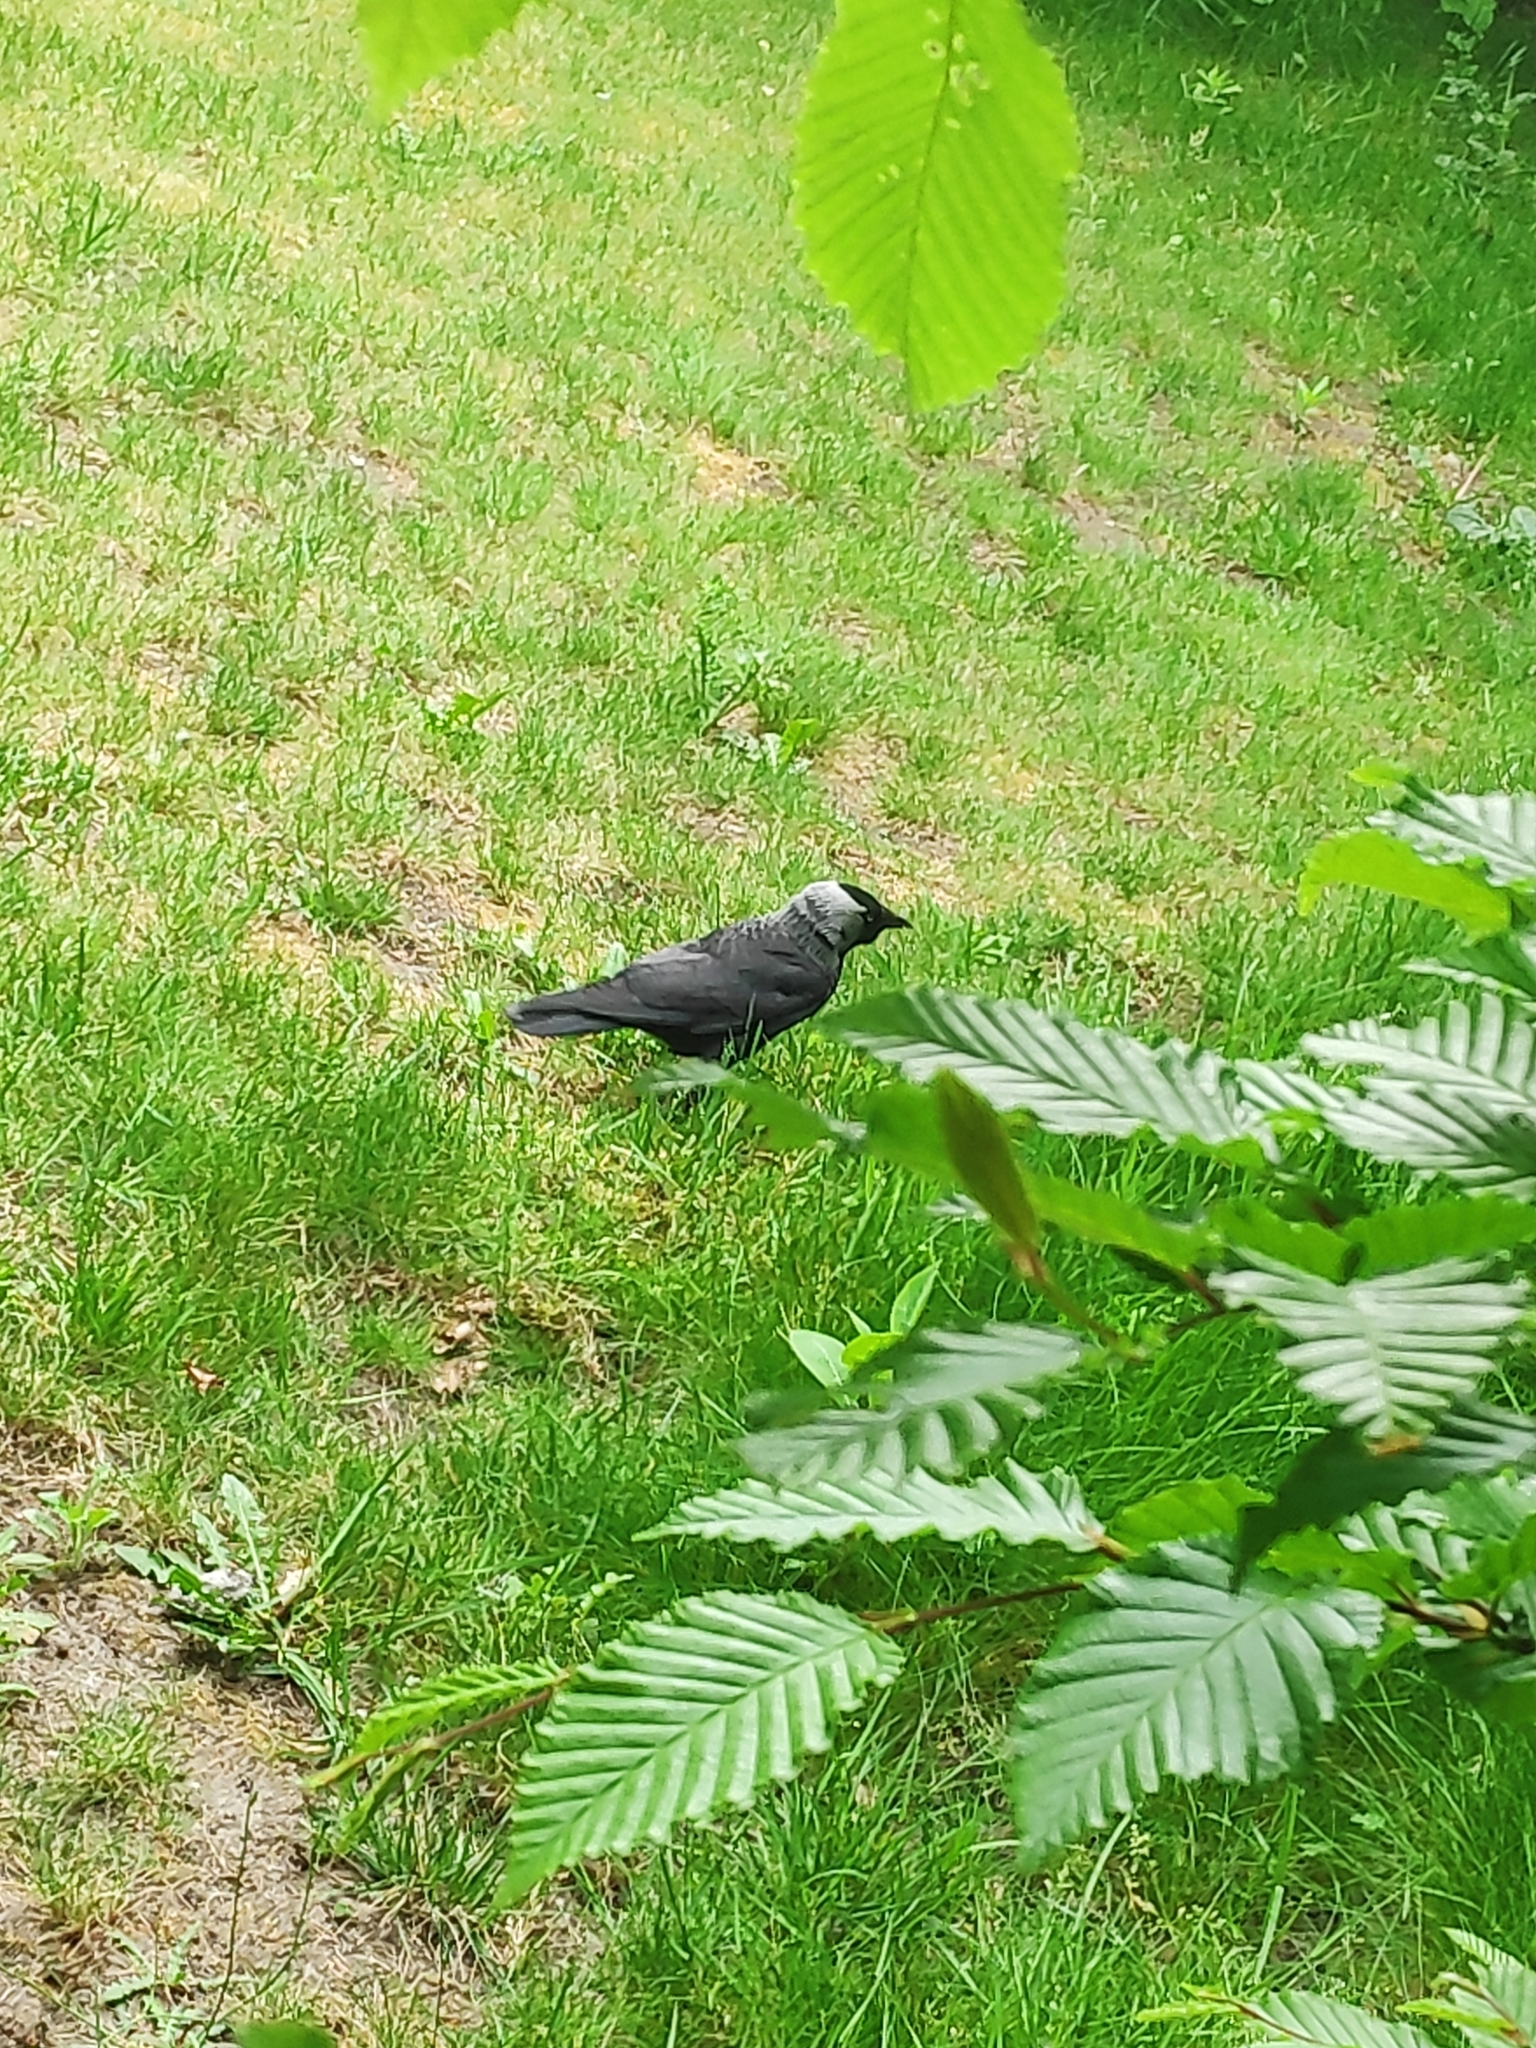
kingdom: Animalia
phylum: Chordata
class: Aves
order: Passeriformes
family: Corvidae
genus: Coloeus
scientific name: Coloeus monedula
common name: Western jackdaw
